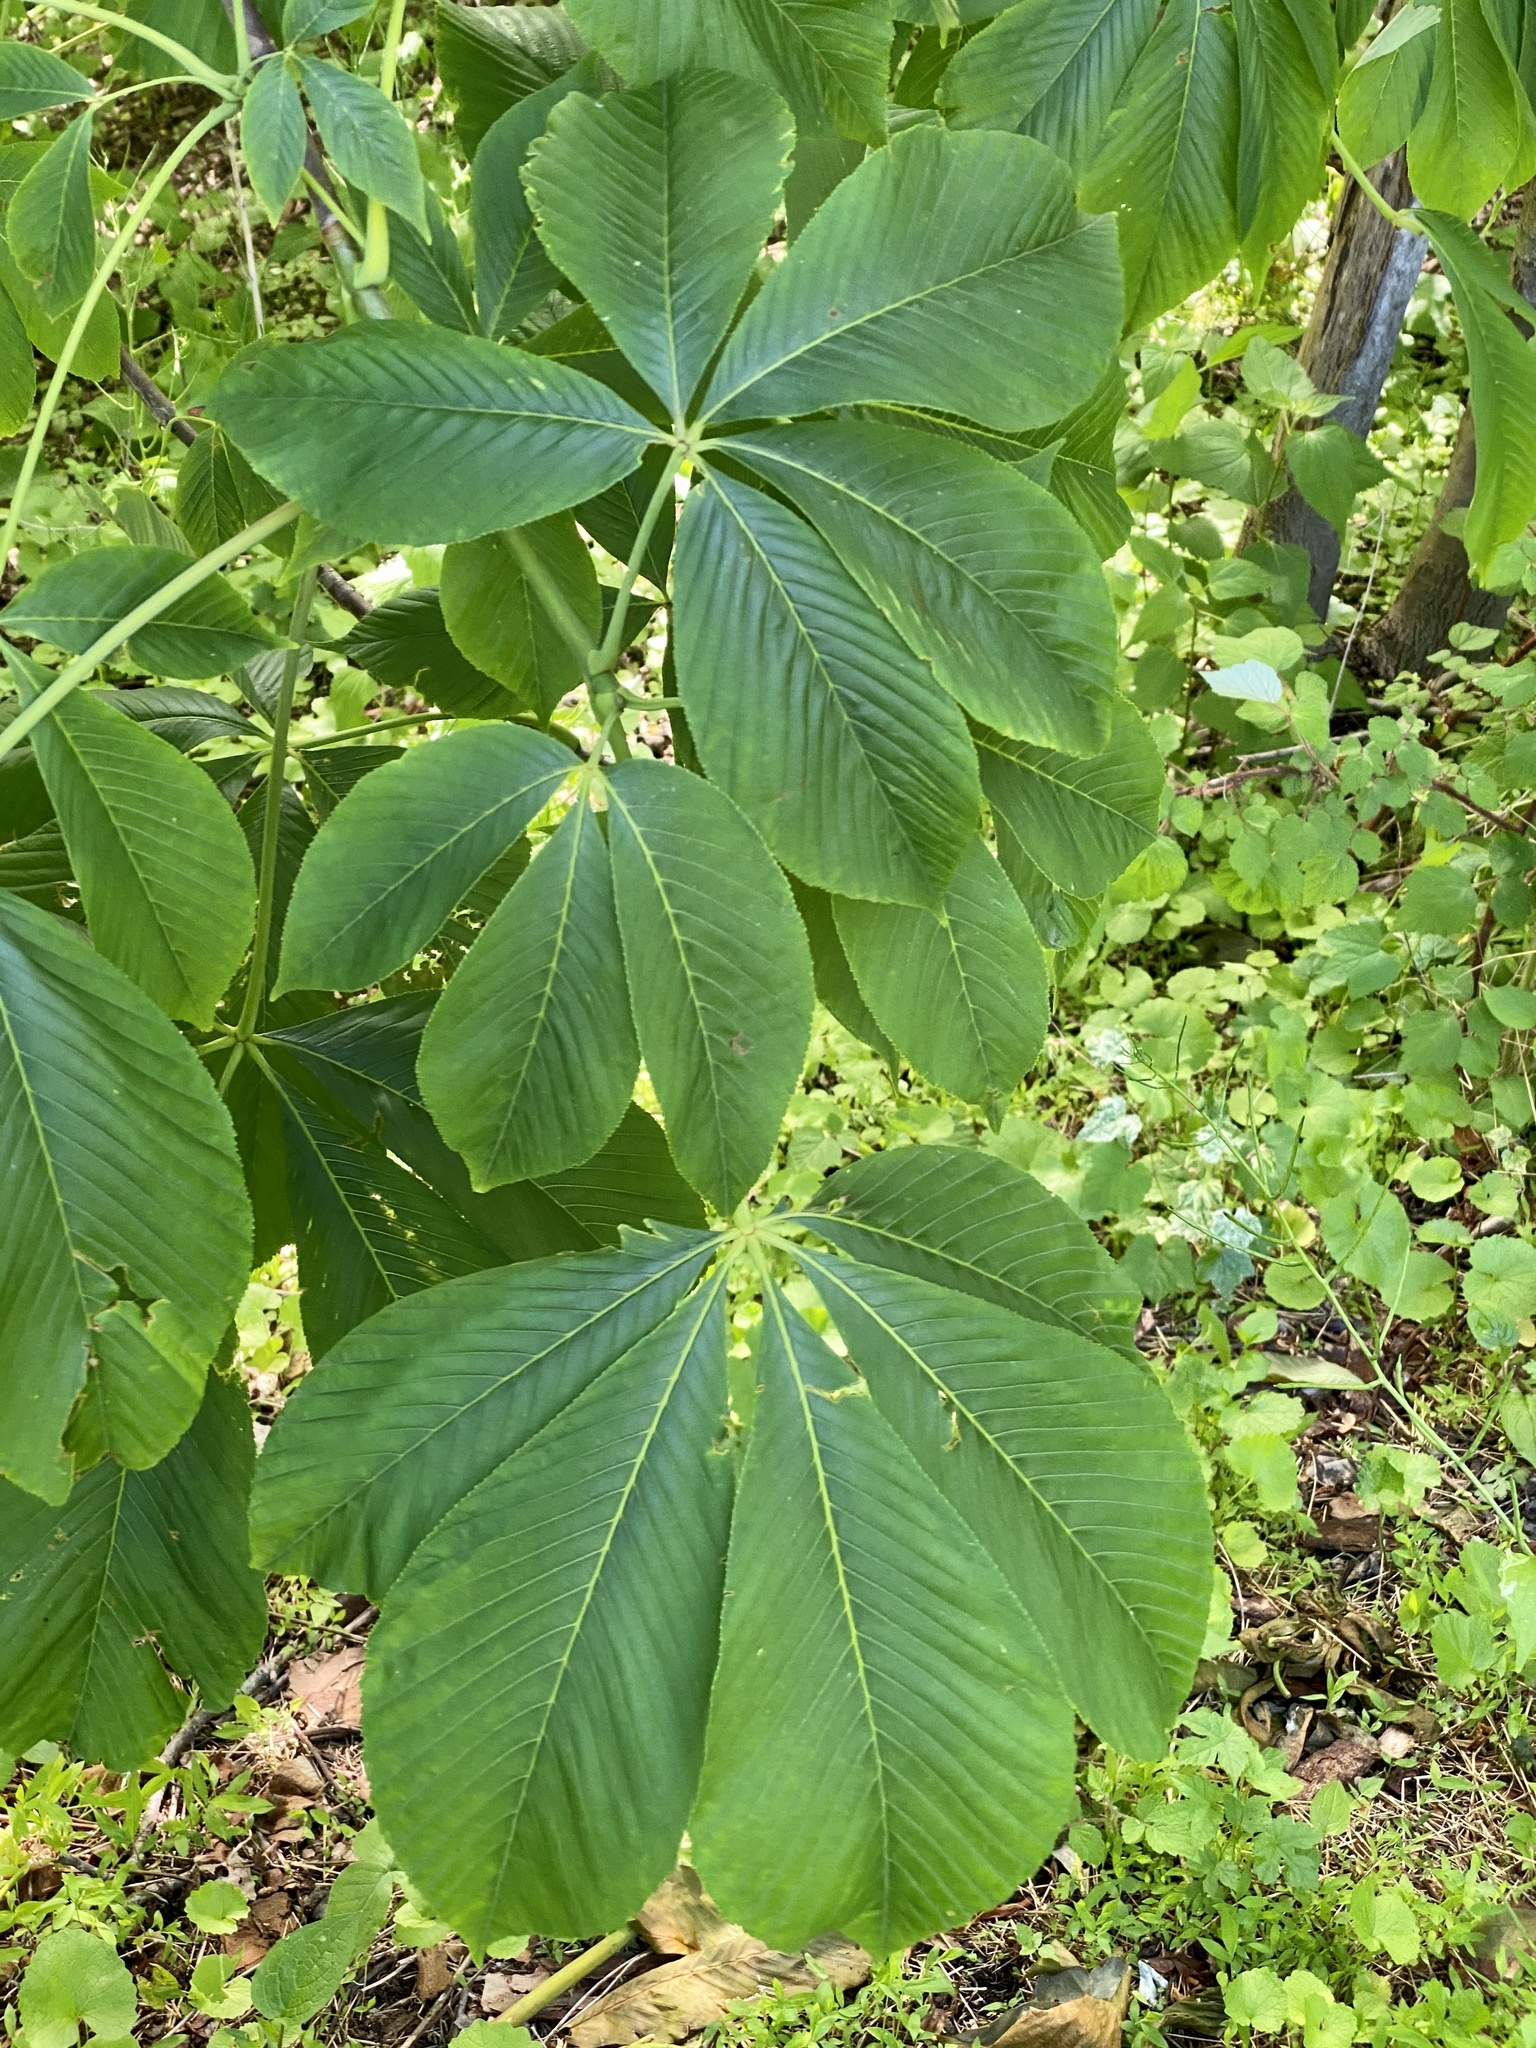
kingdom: Plantae
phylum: Tracheophyta
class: Magnoliopsida
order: Sapindales
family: Sapindaceae
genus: Aesculus
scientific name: Aesculus flava
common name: Yellow buckeye
